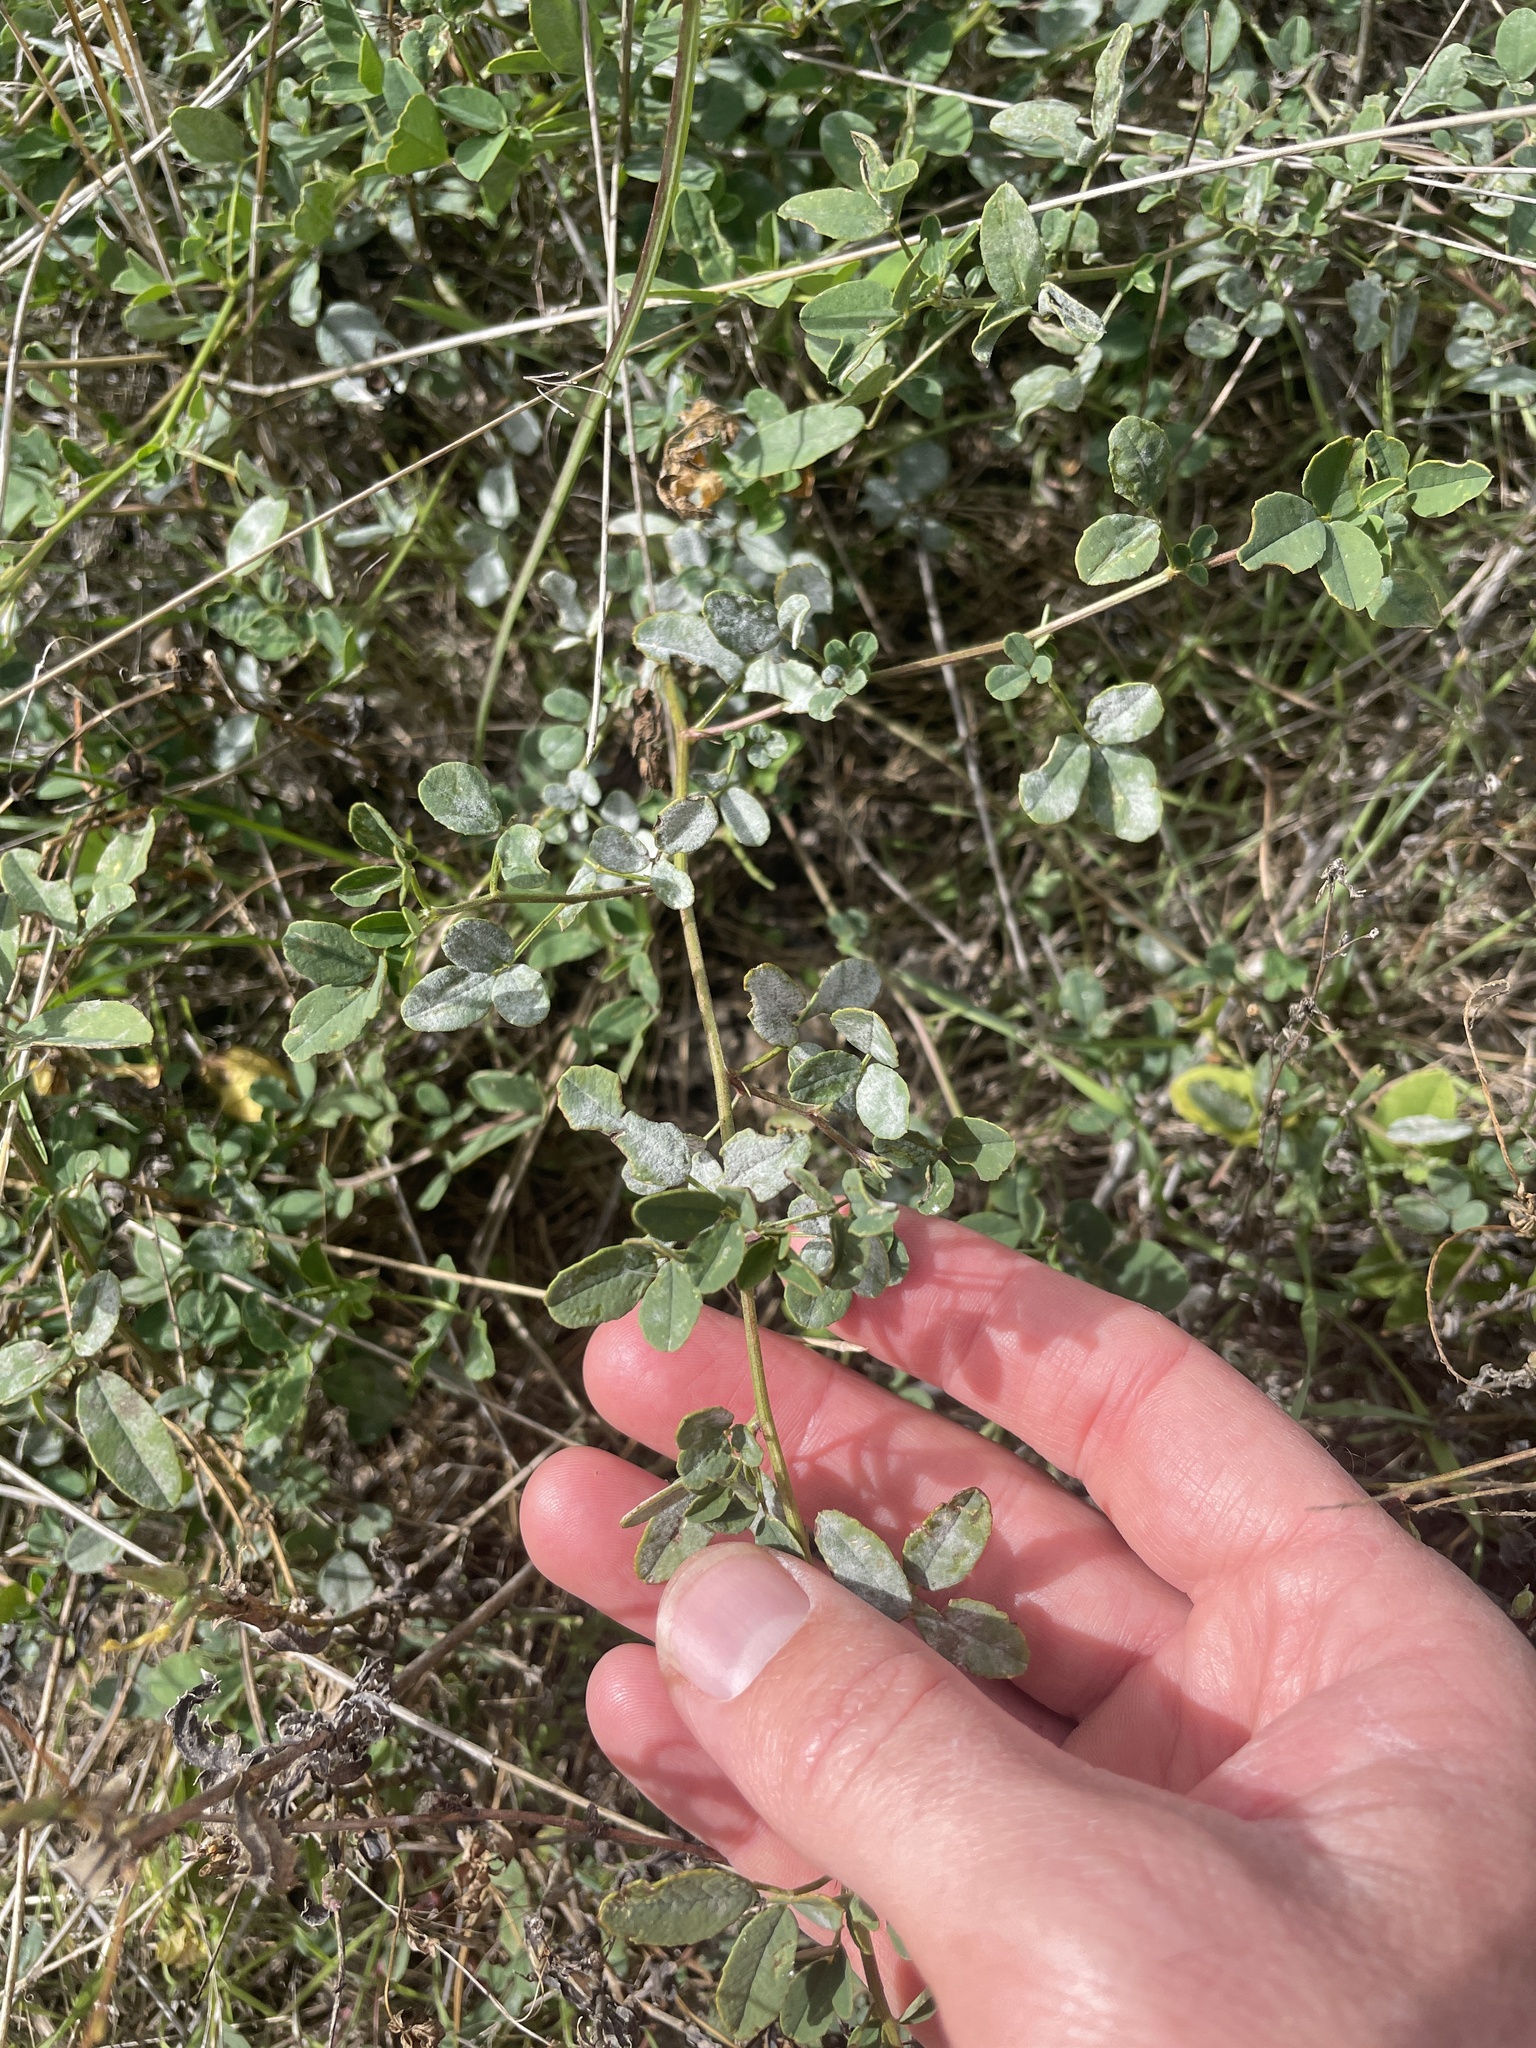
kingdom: Fungi
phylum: Ascomycota
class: Leotiomycetes
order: Helotiales
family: Erysiphaceae
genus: Erysiphe
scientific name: Erysiphe trifoliorum
